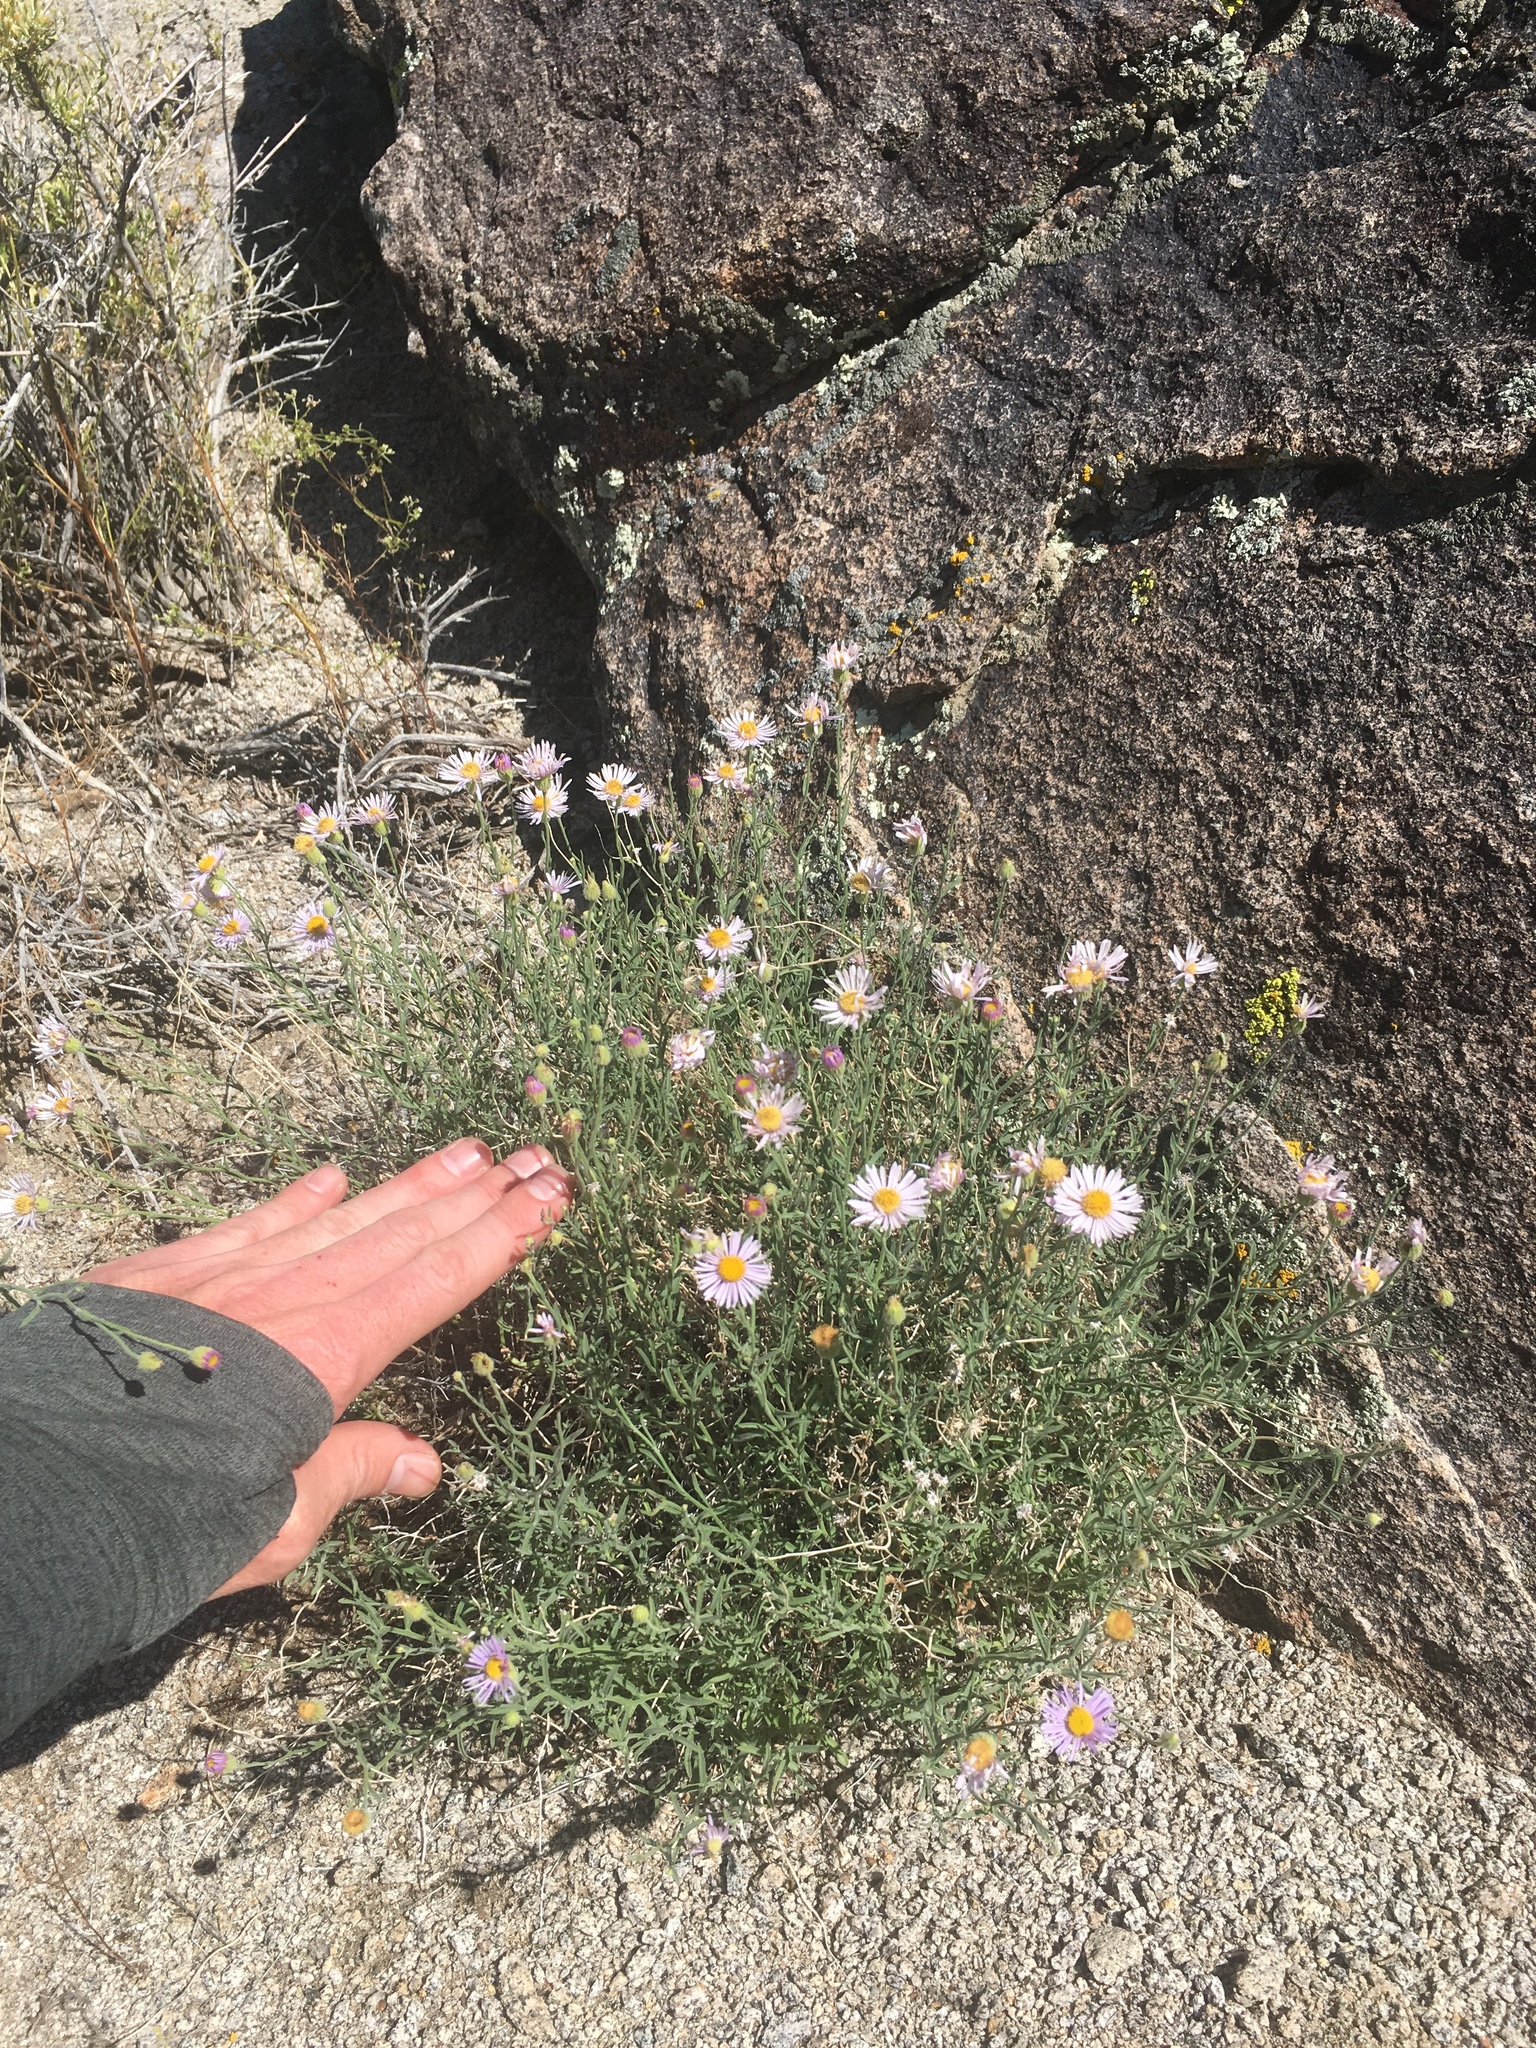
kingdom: Plantae
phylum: Tracheophyta
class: Magnoliopsida
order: Asterales
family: Asteraceae
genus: Erigeron
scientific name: Erigeron breweri
